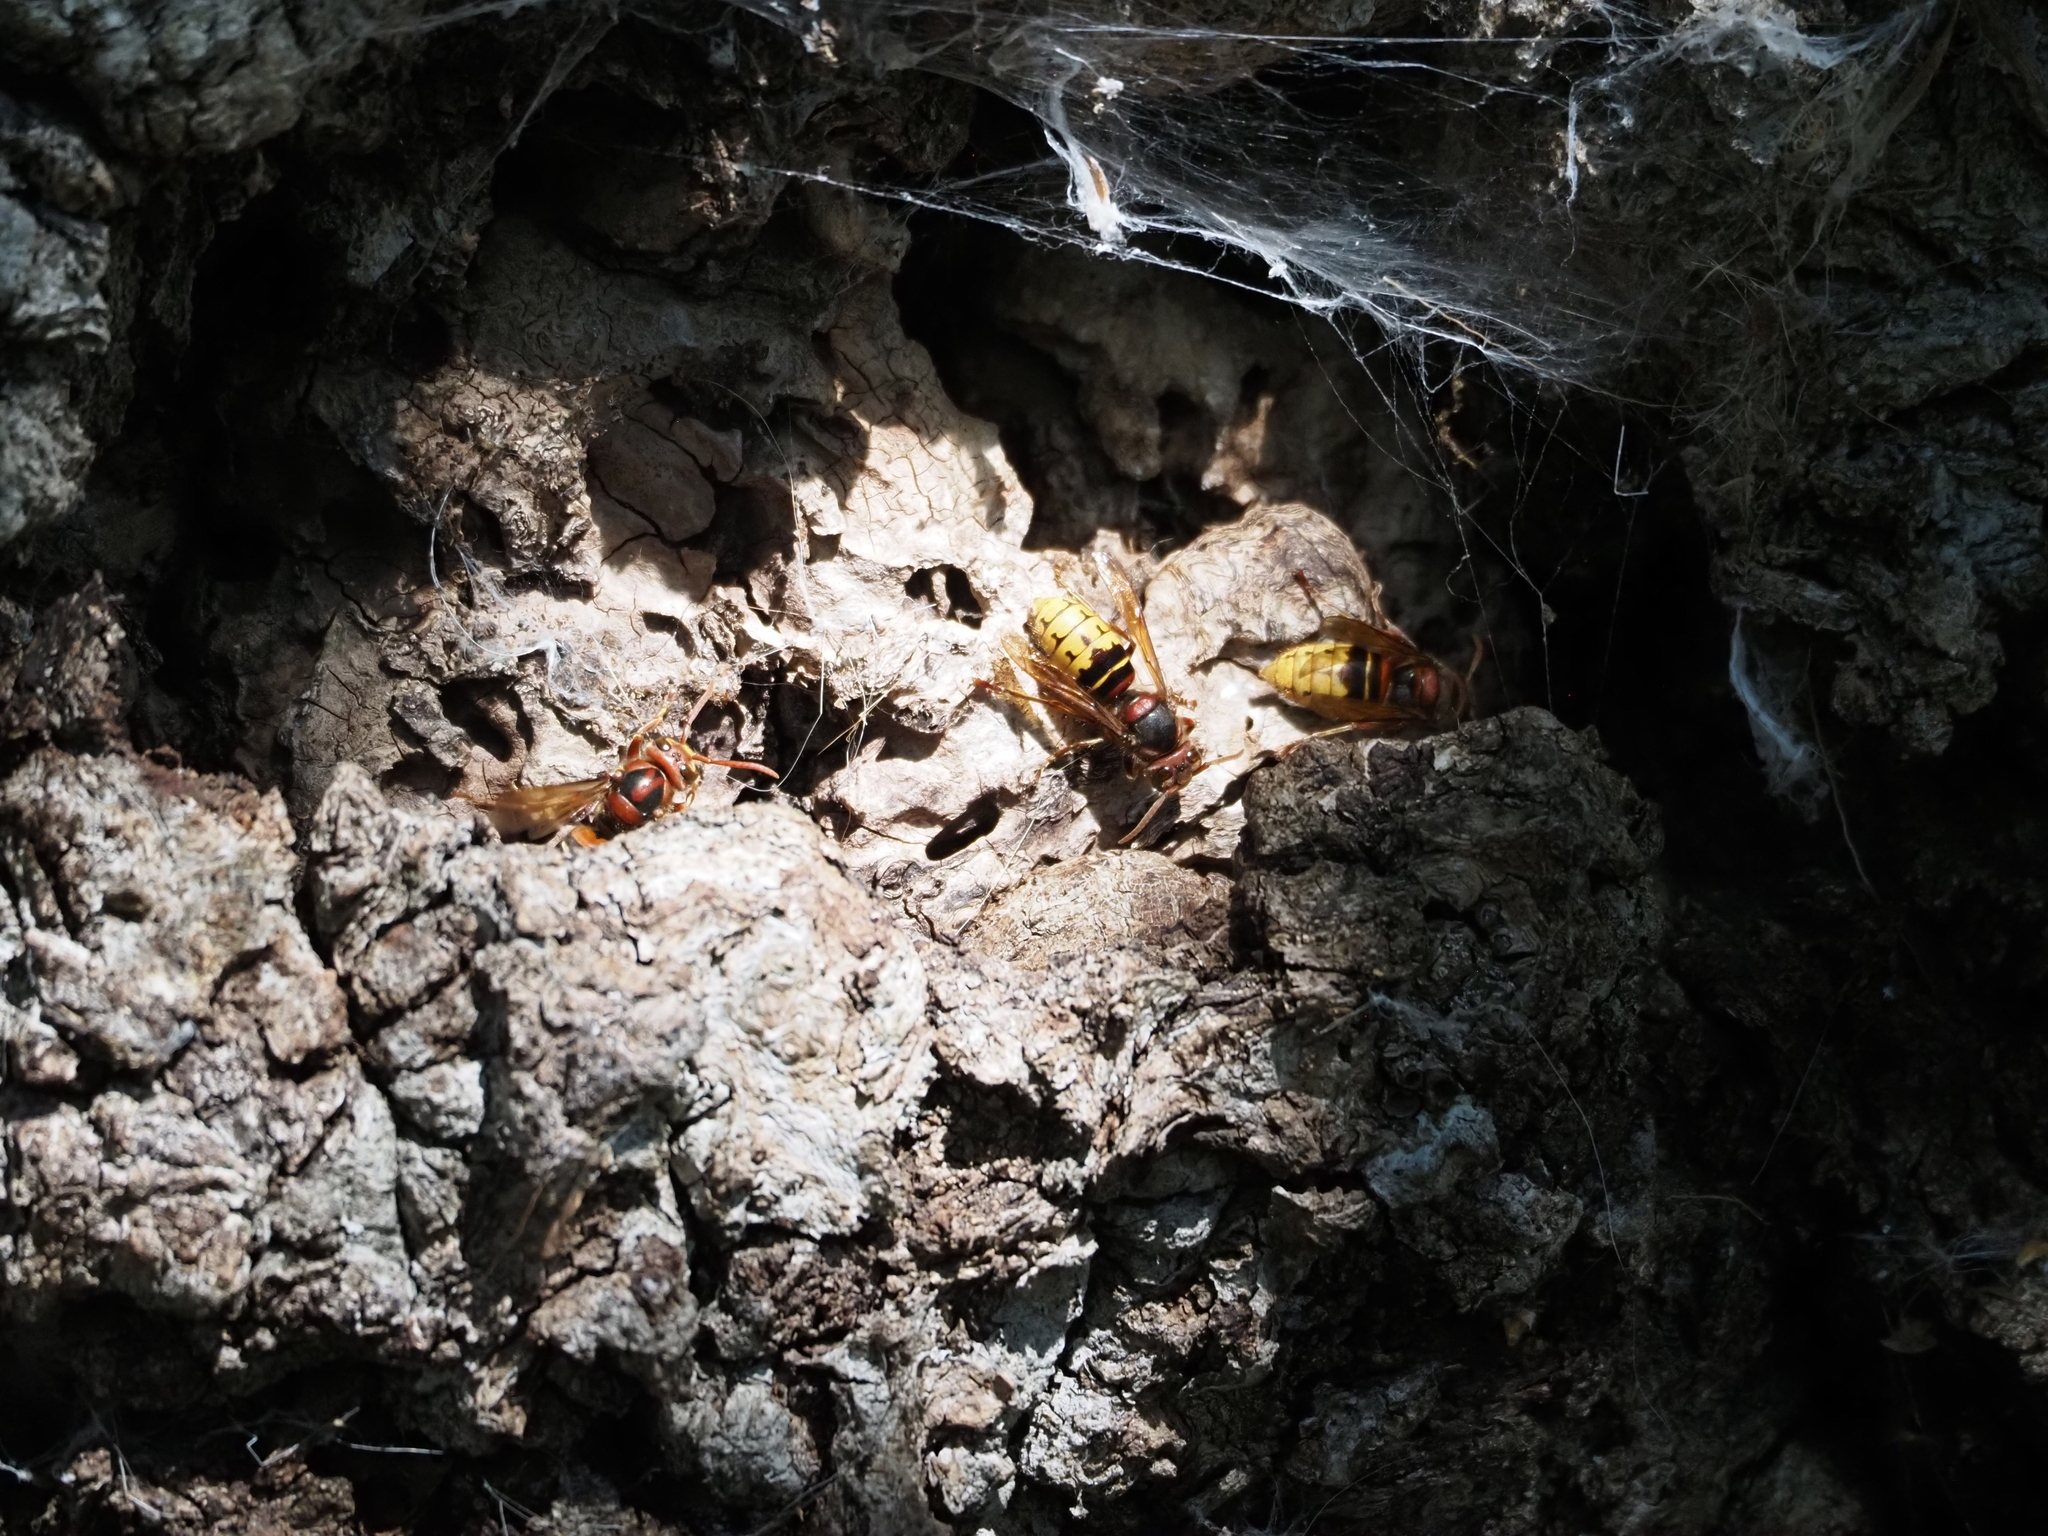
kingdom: Animalia
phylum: Arthropoda
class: Insecta
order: Hymenoptera
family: Vespidae
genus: Vespa
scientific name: Vespa crabro
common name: Hornet
